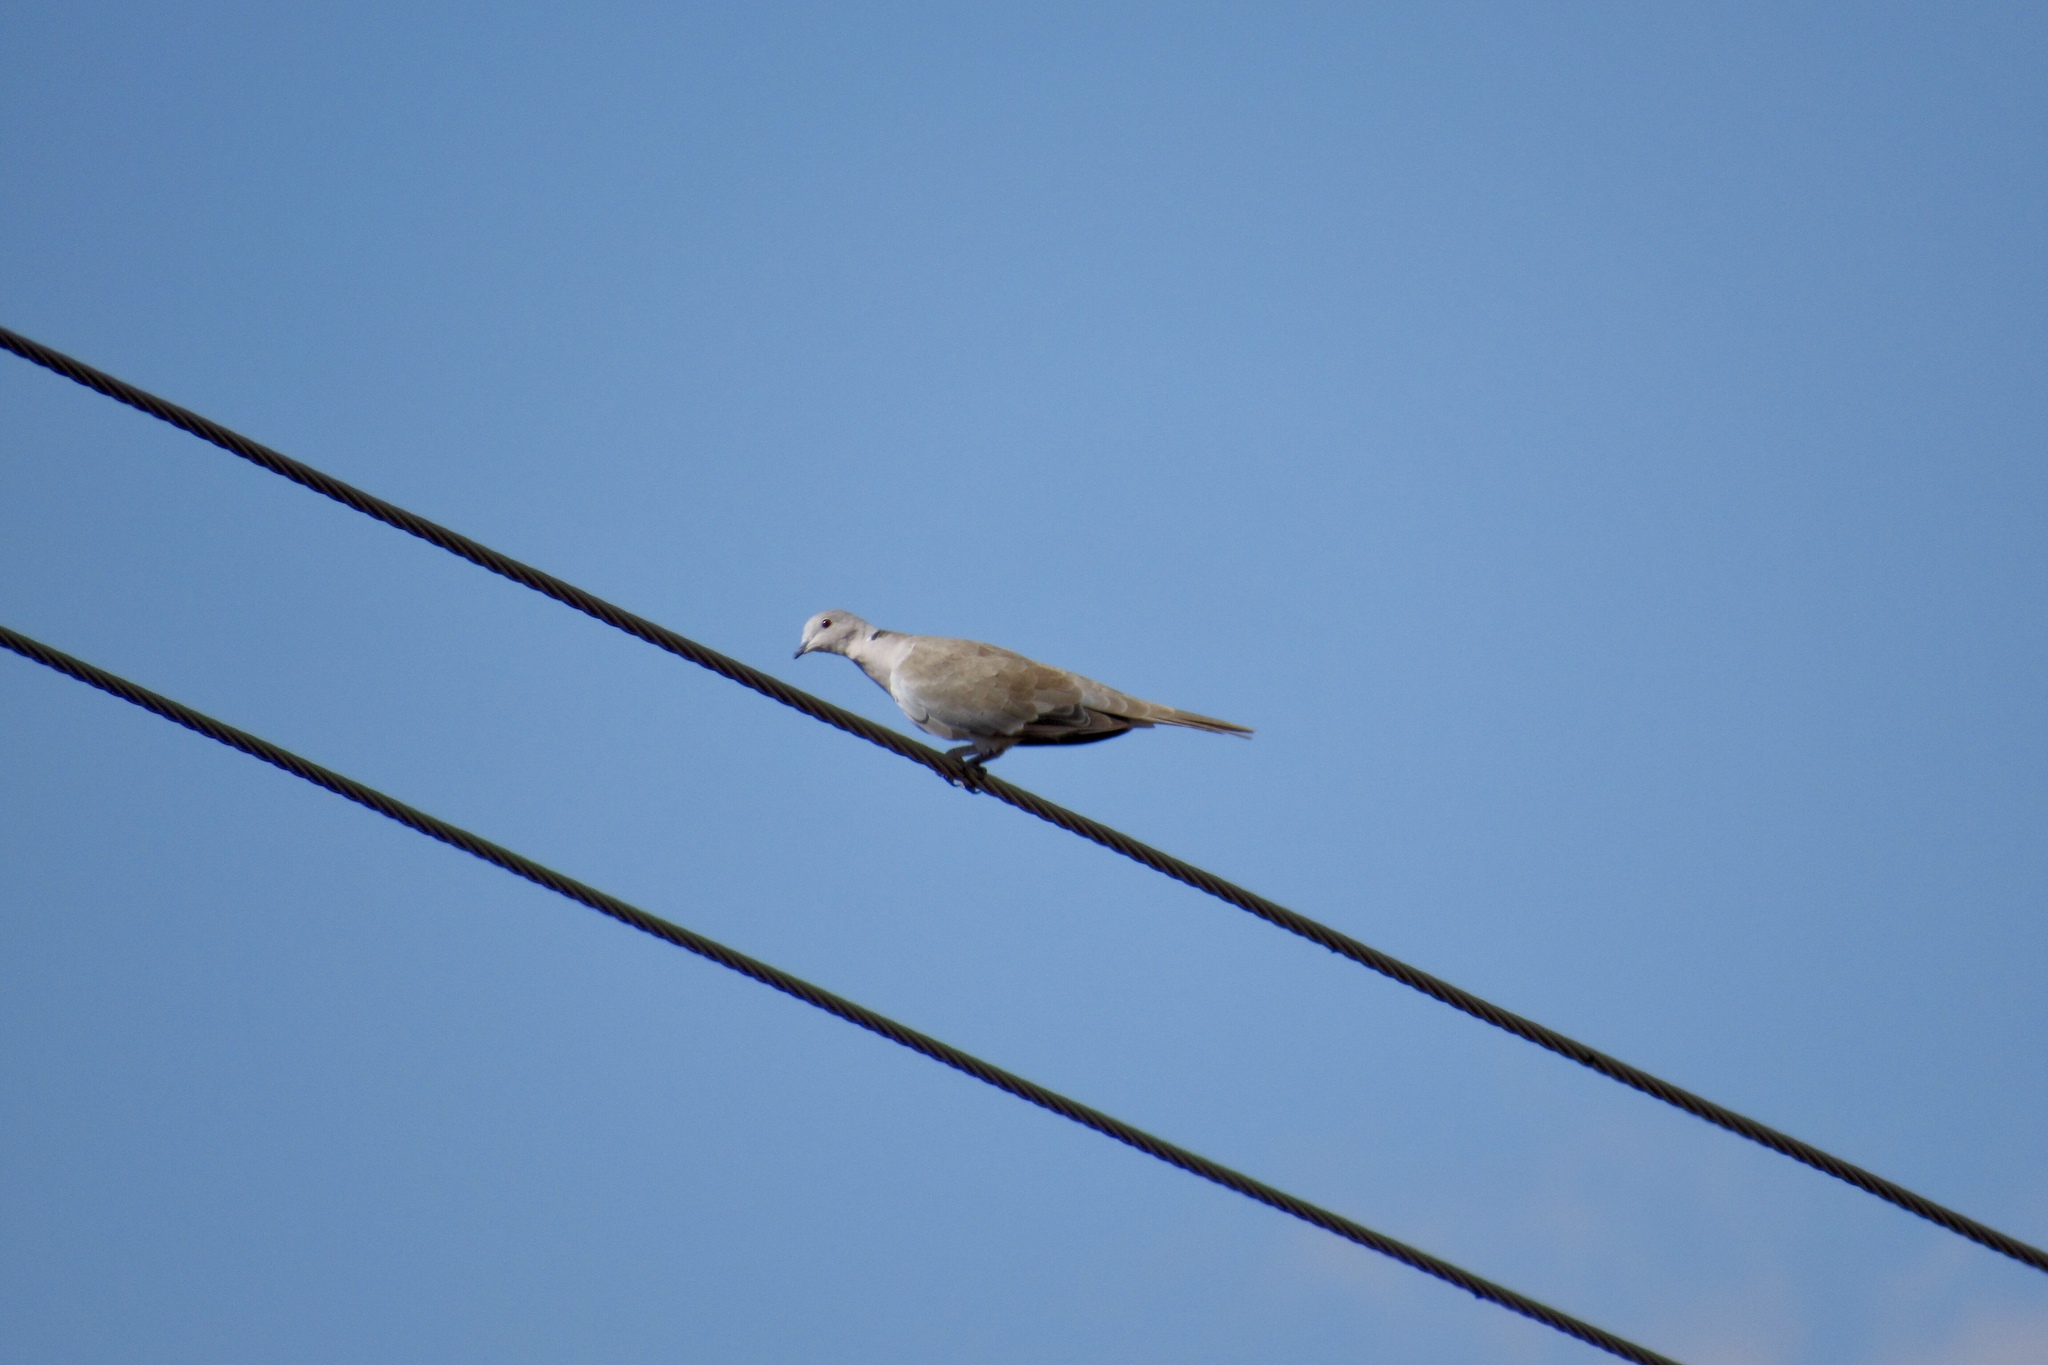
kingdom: Animalia
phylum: Chordata
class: Aves
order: Columbiformes
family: Columbidae
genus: Streptopelia
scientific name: Streptopelia decaocto
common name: Eurasian collared dove
